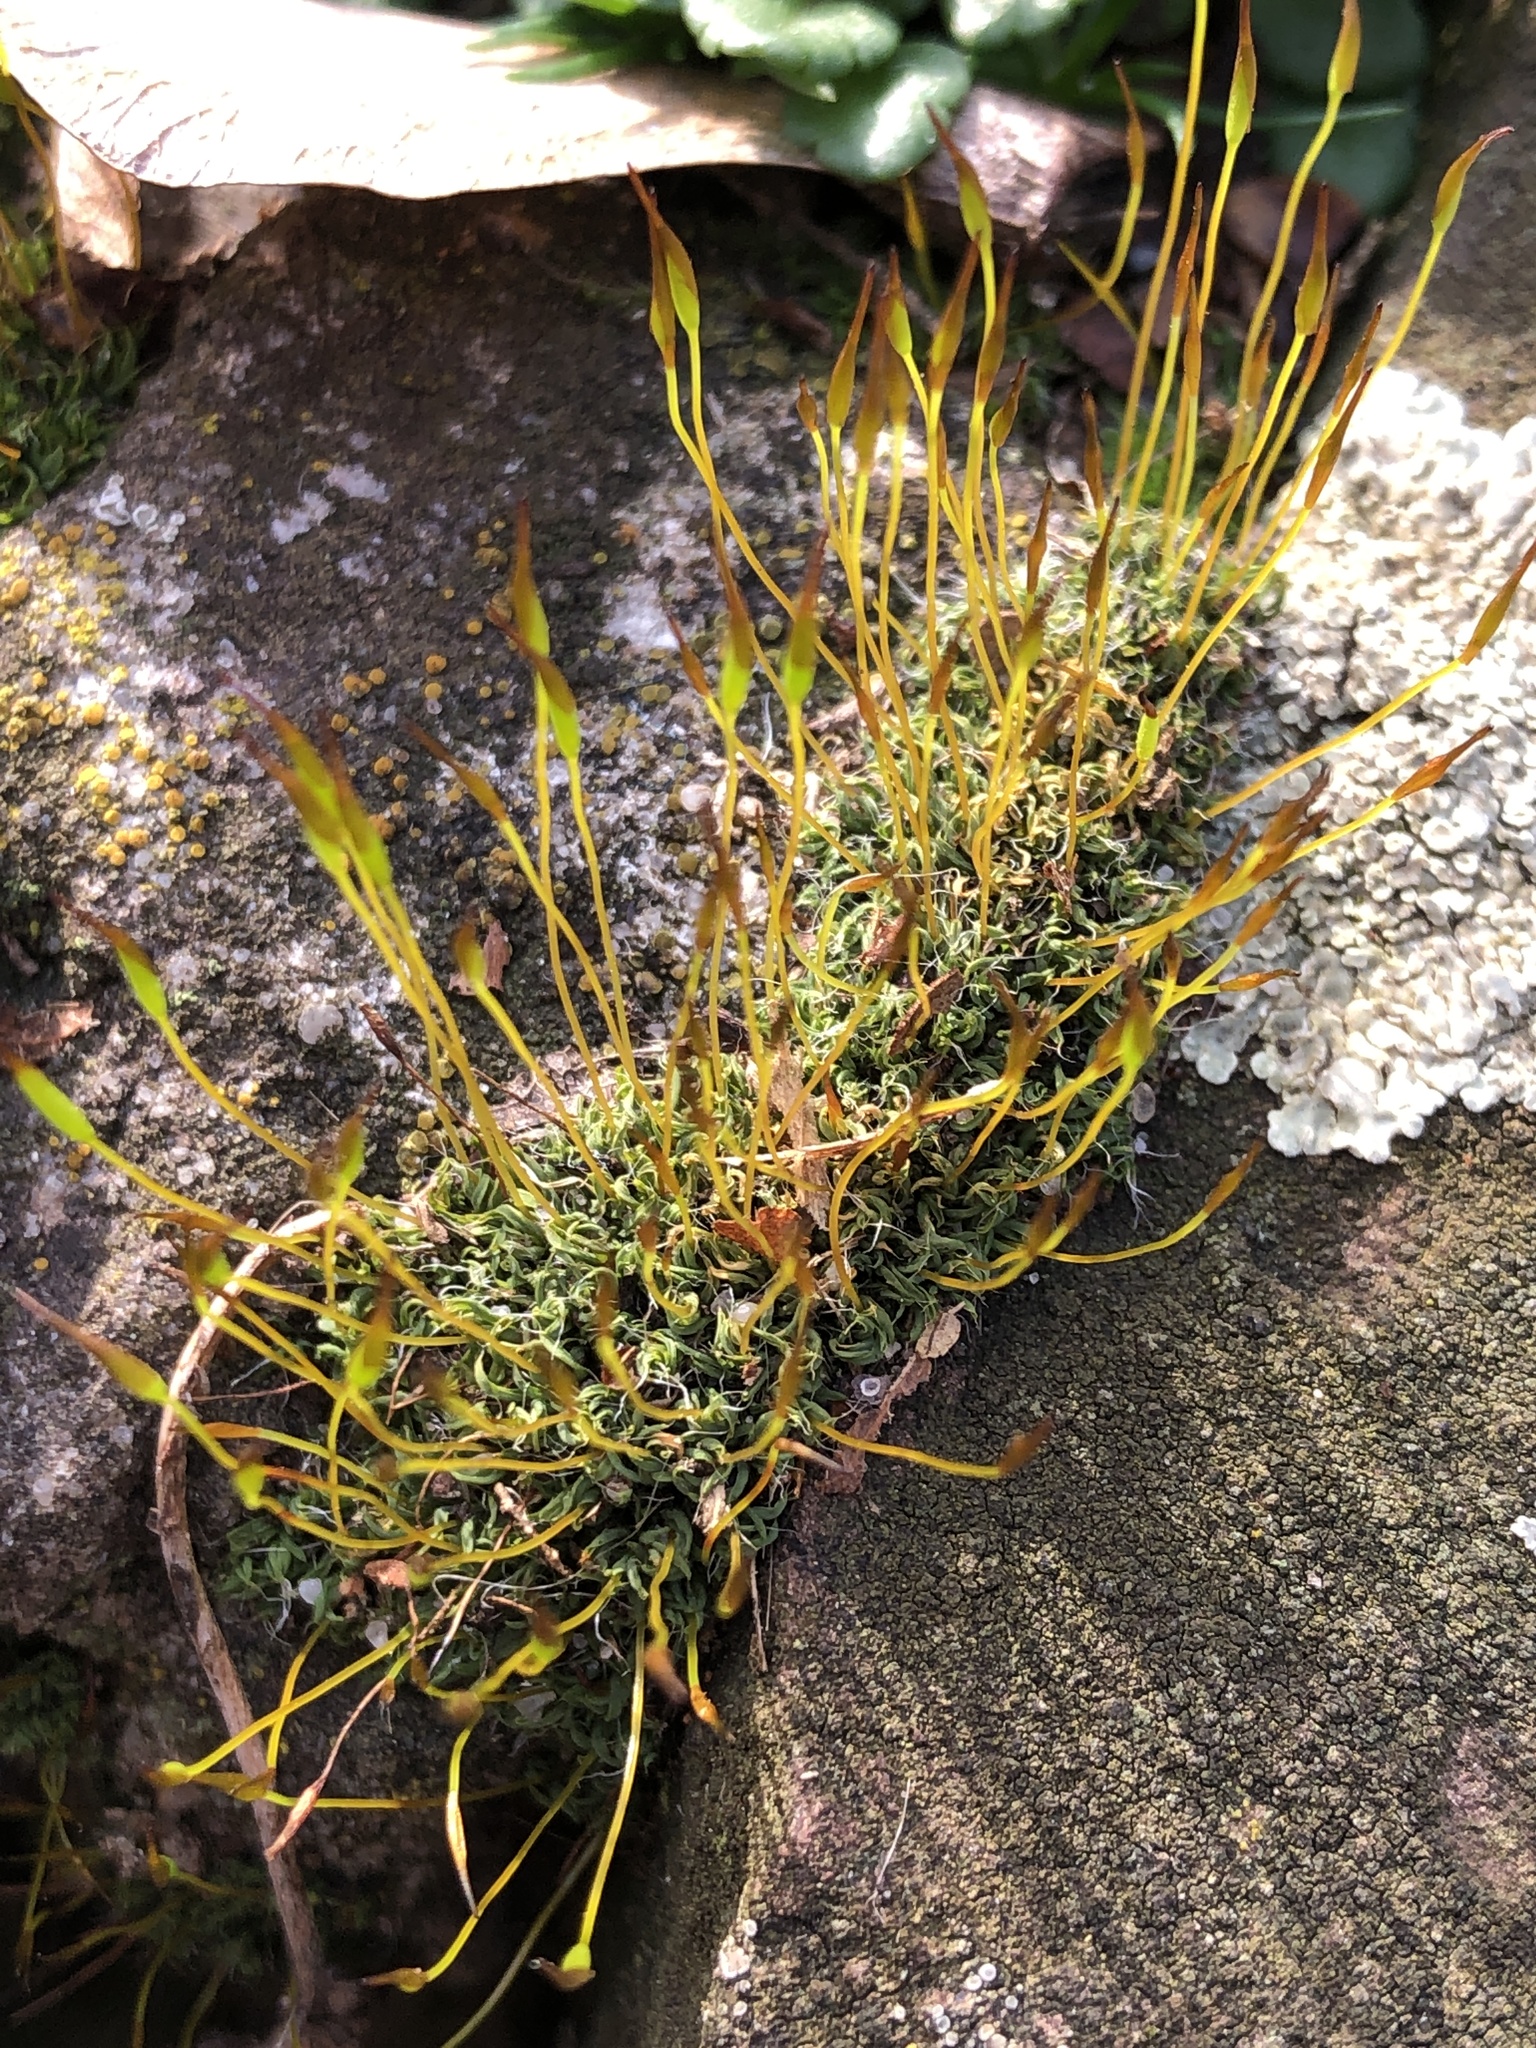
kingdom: Plantae
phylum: Bryophyta
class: Bryopsida
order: Pottiales
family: Pottiaceae
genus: Tortula
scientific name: Tortula muralis
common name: Wall screw-moss
